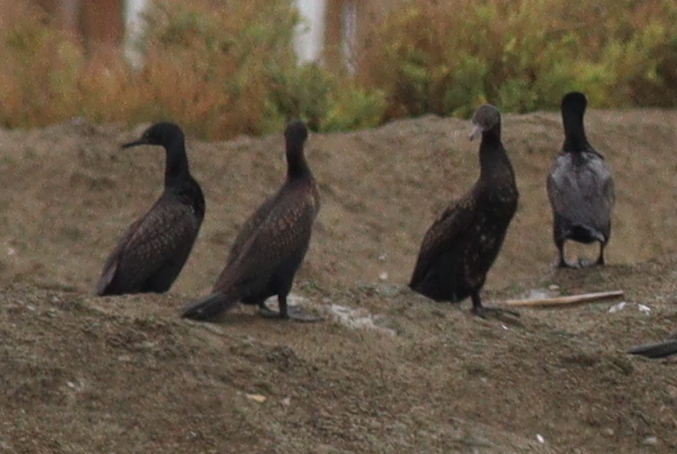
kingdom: Animalia
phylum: Chordata
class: Aves
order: Suliformes
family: Phalacrocoracidae
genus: Phalacrocorax
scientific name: Phalacrocorax fuscicollis
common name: Indian cormorant
